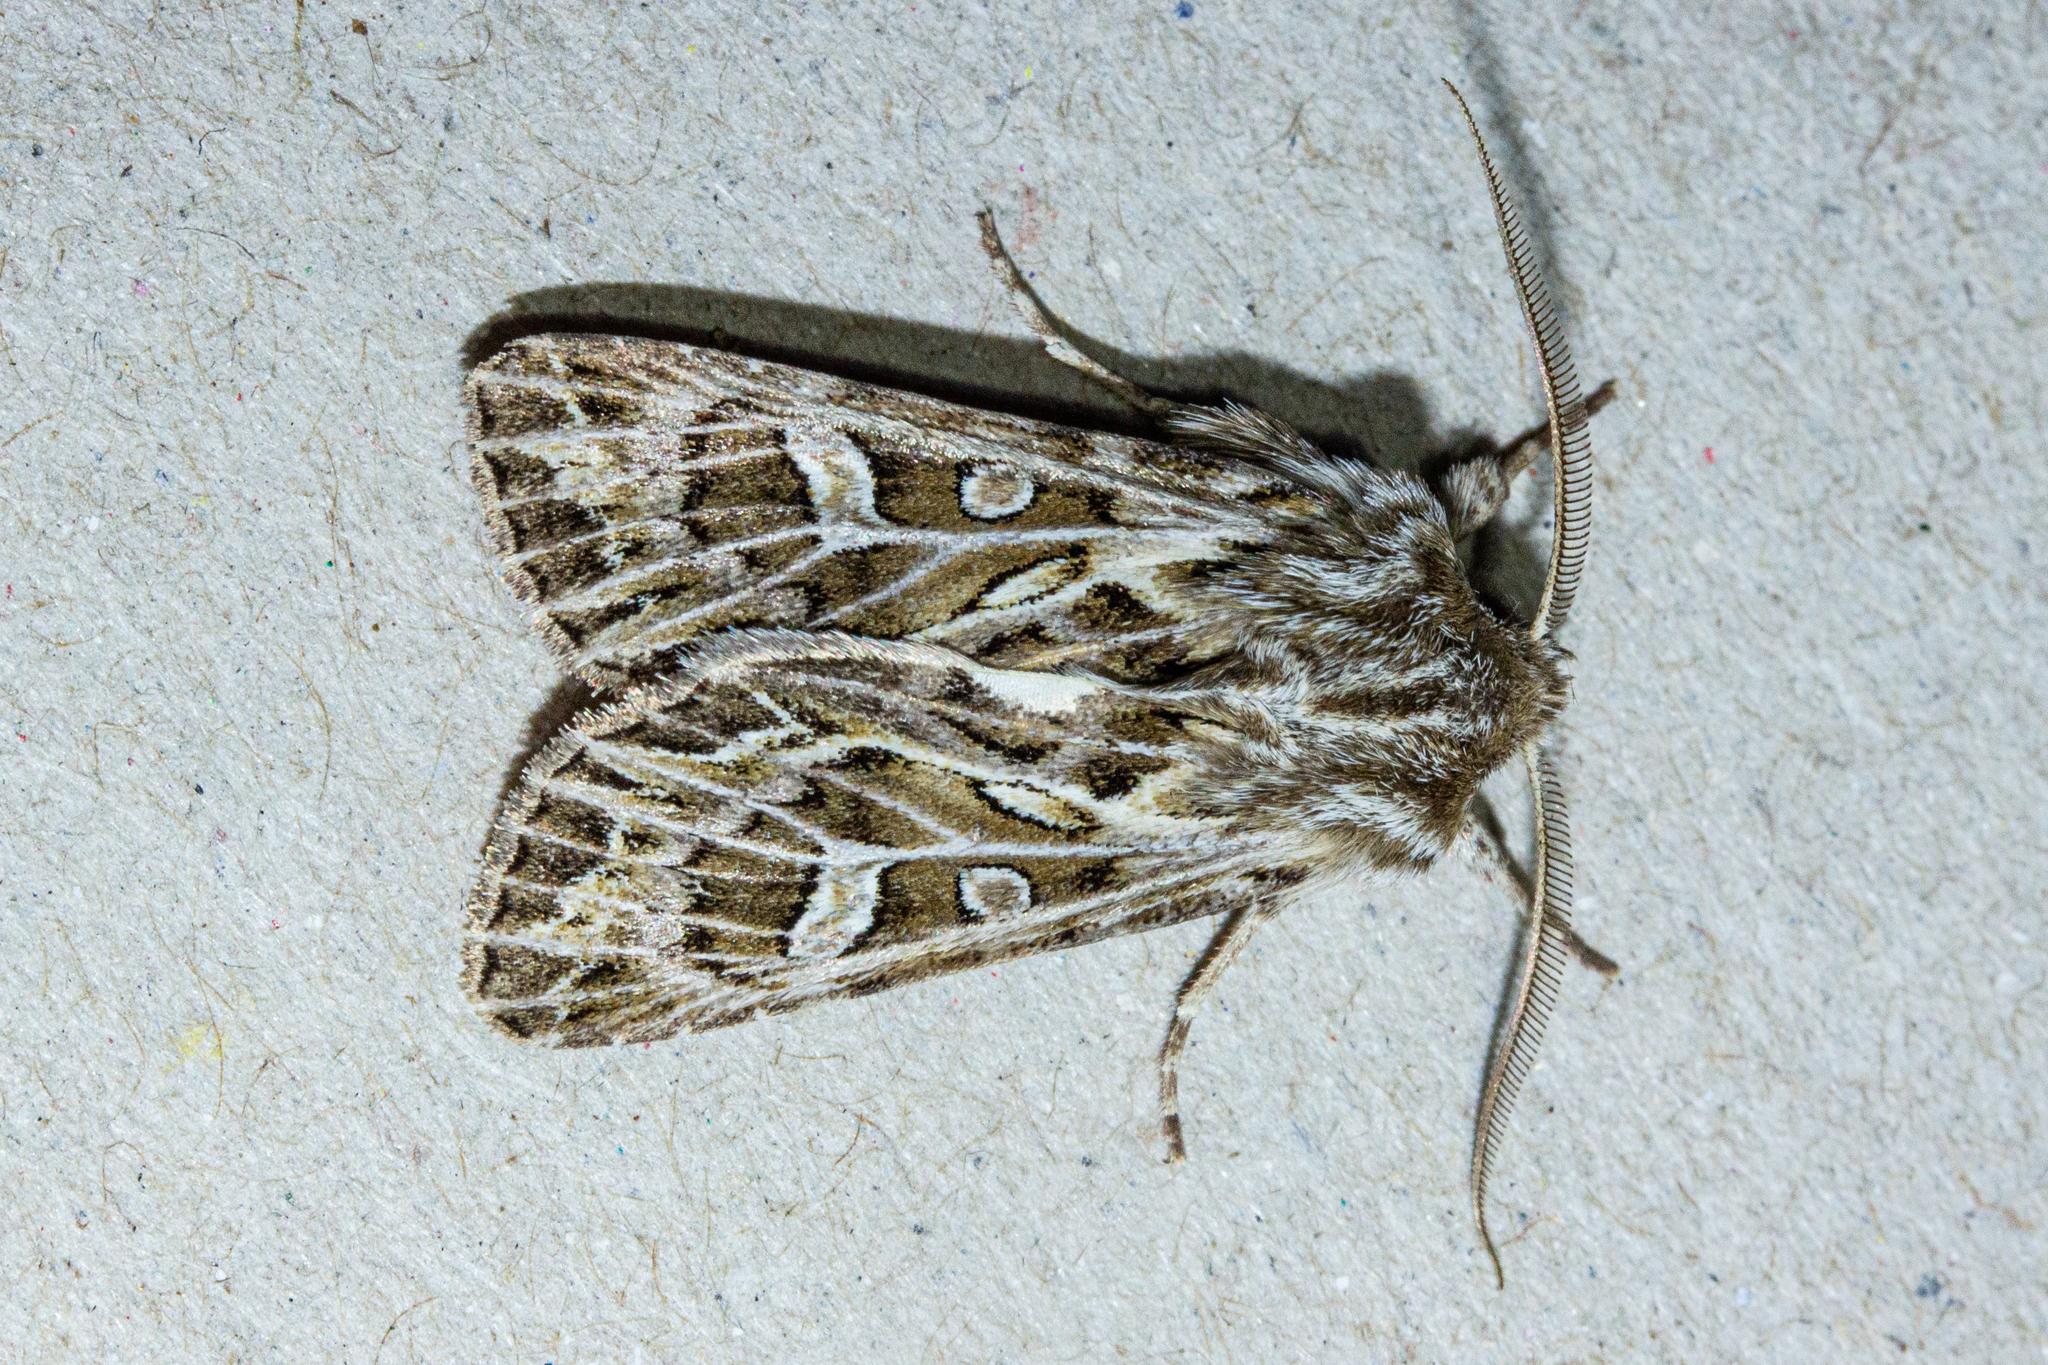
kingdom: Animalia
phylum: Arthropoda
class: Insecta
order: Lepidoptera
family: Noctuidae
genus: Ichneutica
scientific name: Ichneutica
